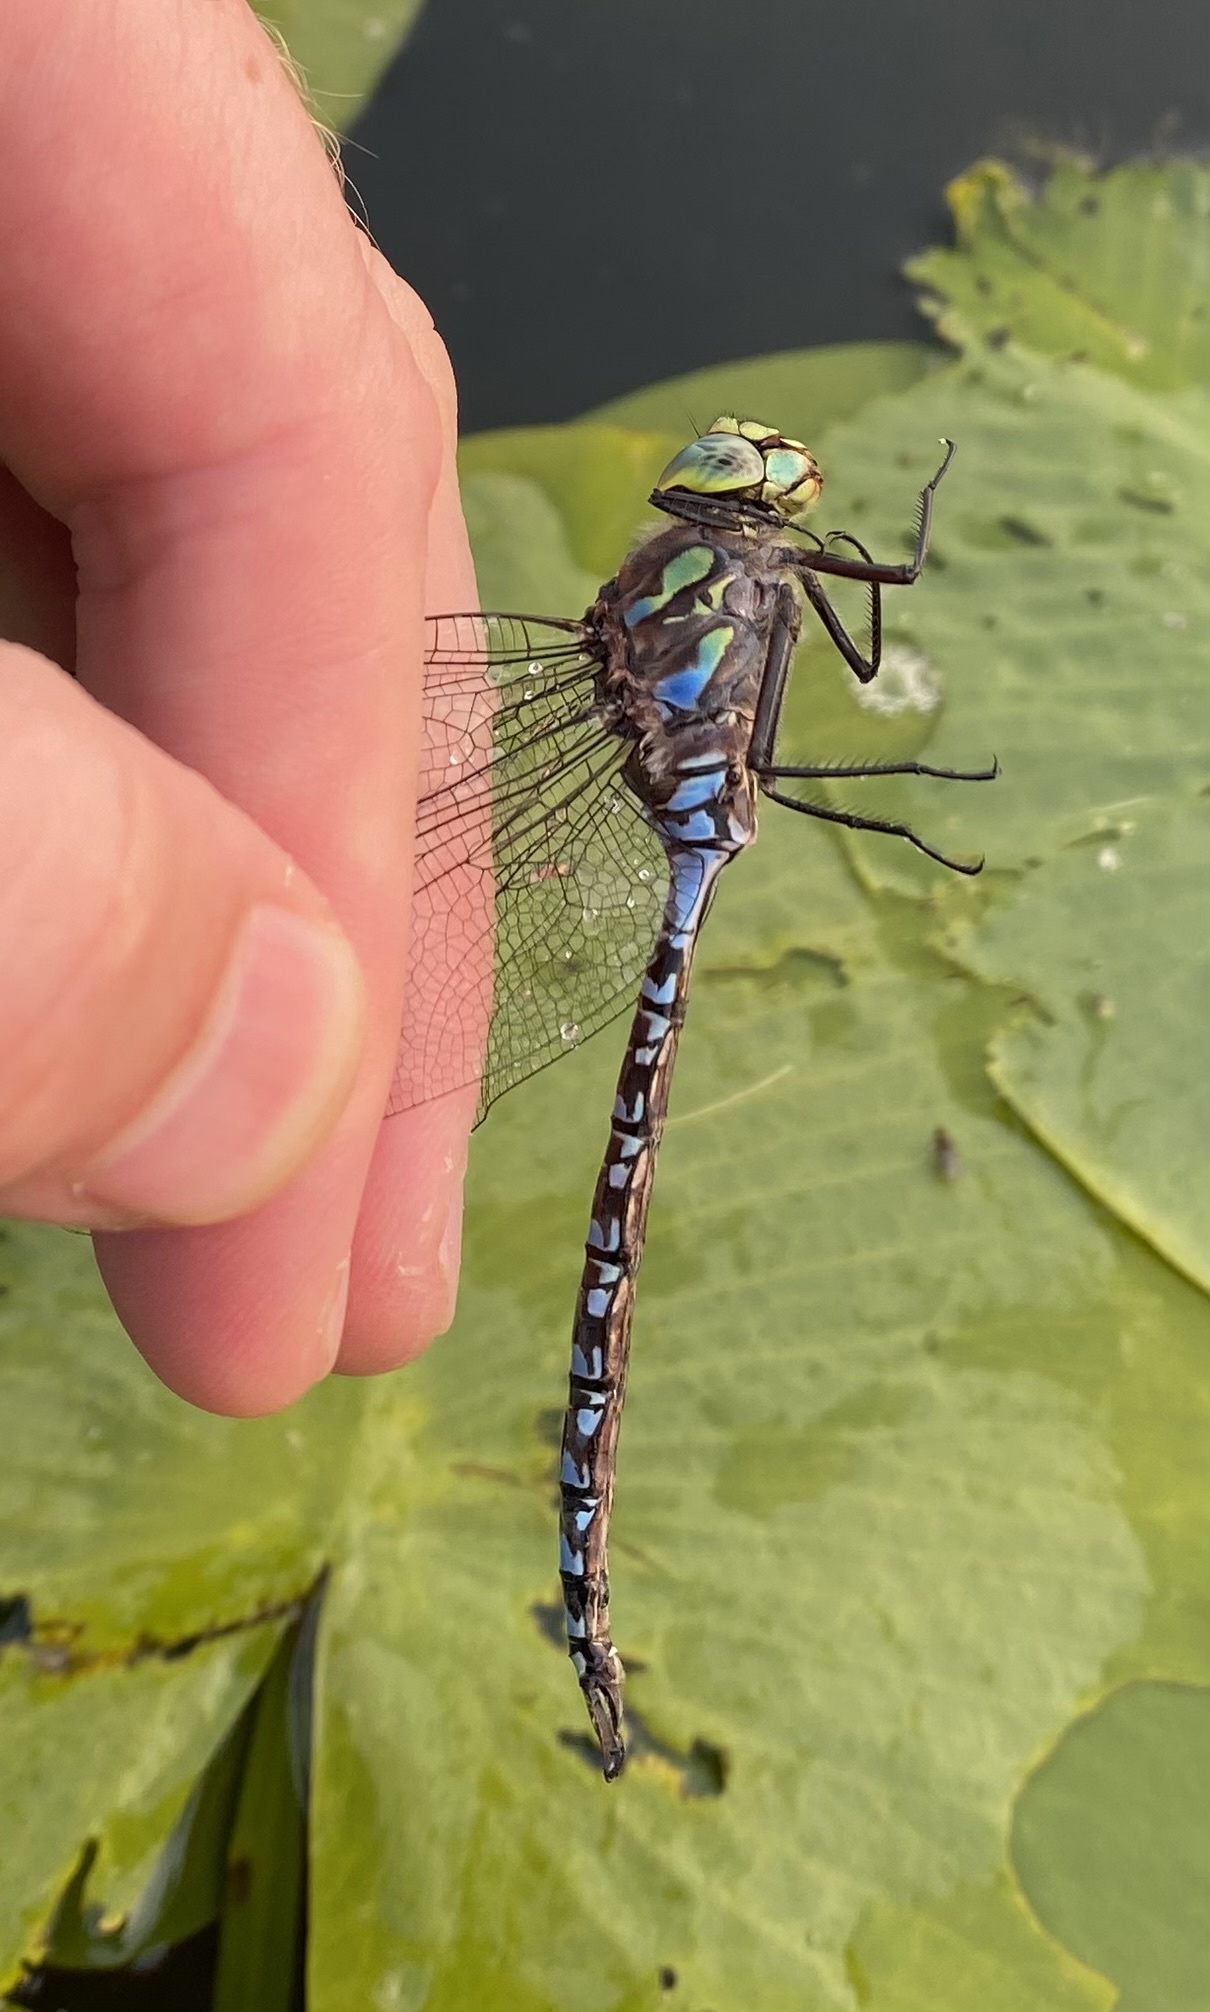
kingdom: Animalia
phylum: Arthropoda
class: Insecta
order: Odonata
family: Aeshnidae
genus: Aeshna
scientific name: Aeshna eremita
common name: Lake darner
